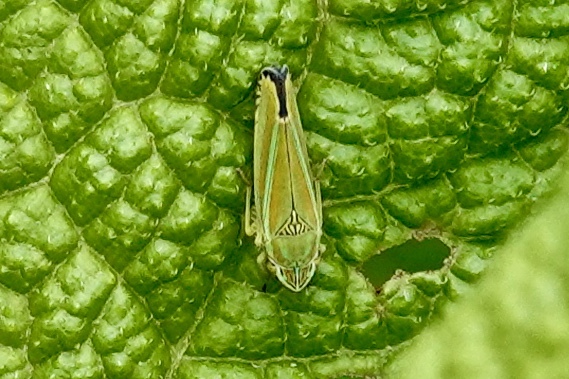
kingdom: Animalia
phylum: Arthropoda
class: Insecta
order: Hemiptera
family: Cicadellidae
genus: Graphocephala
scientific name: Graphocephala versuta
